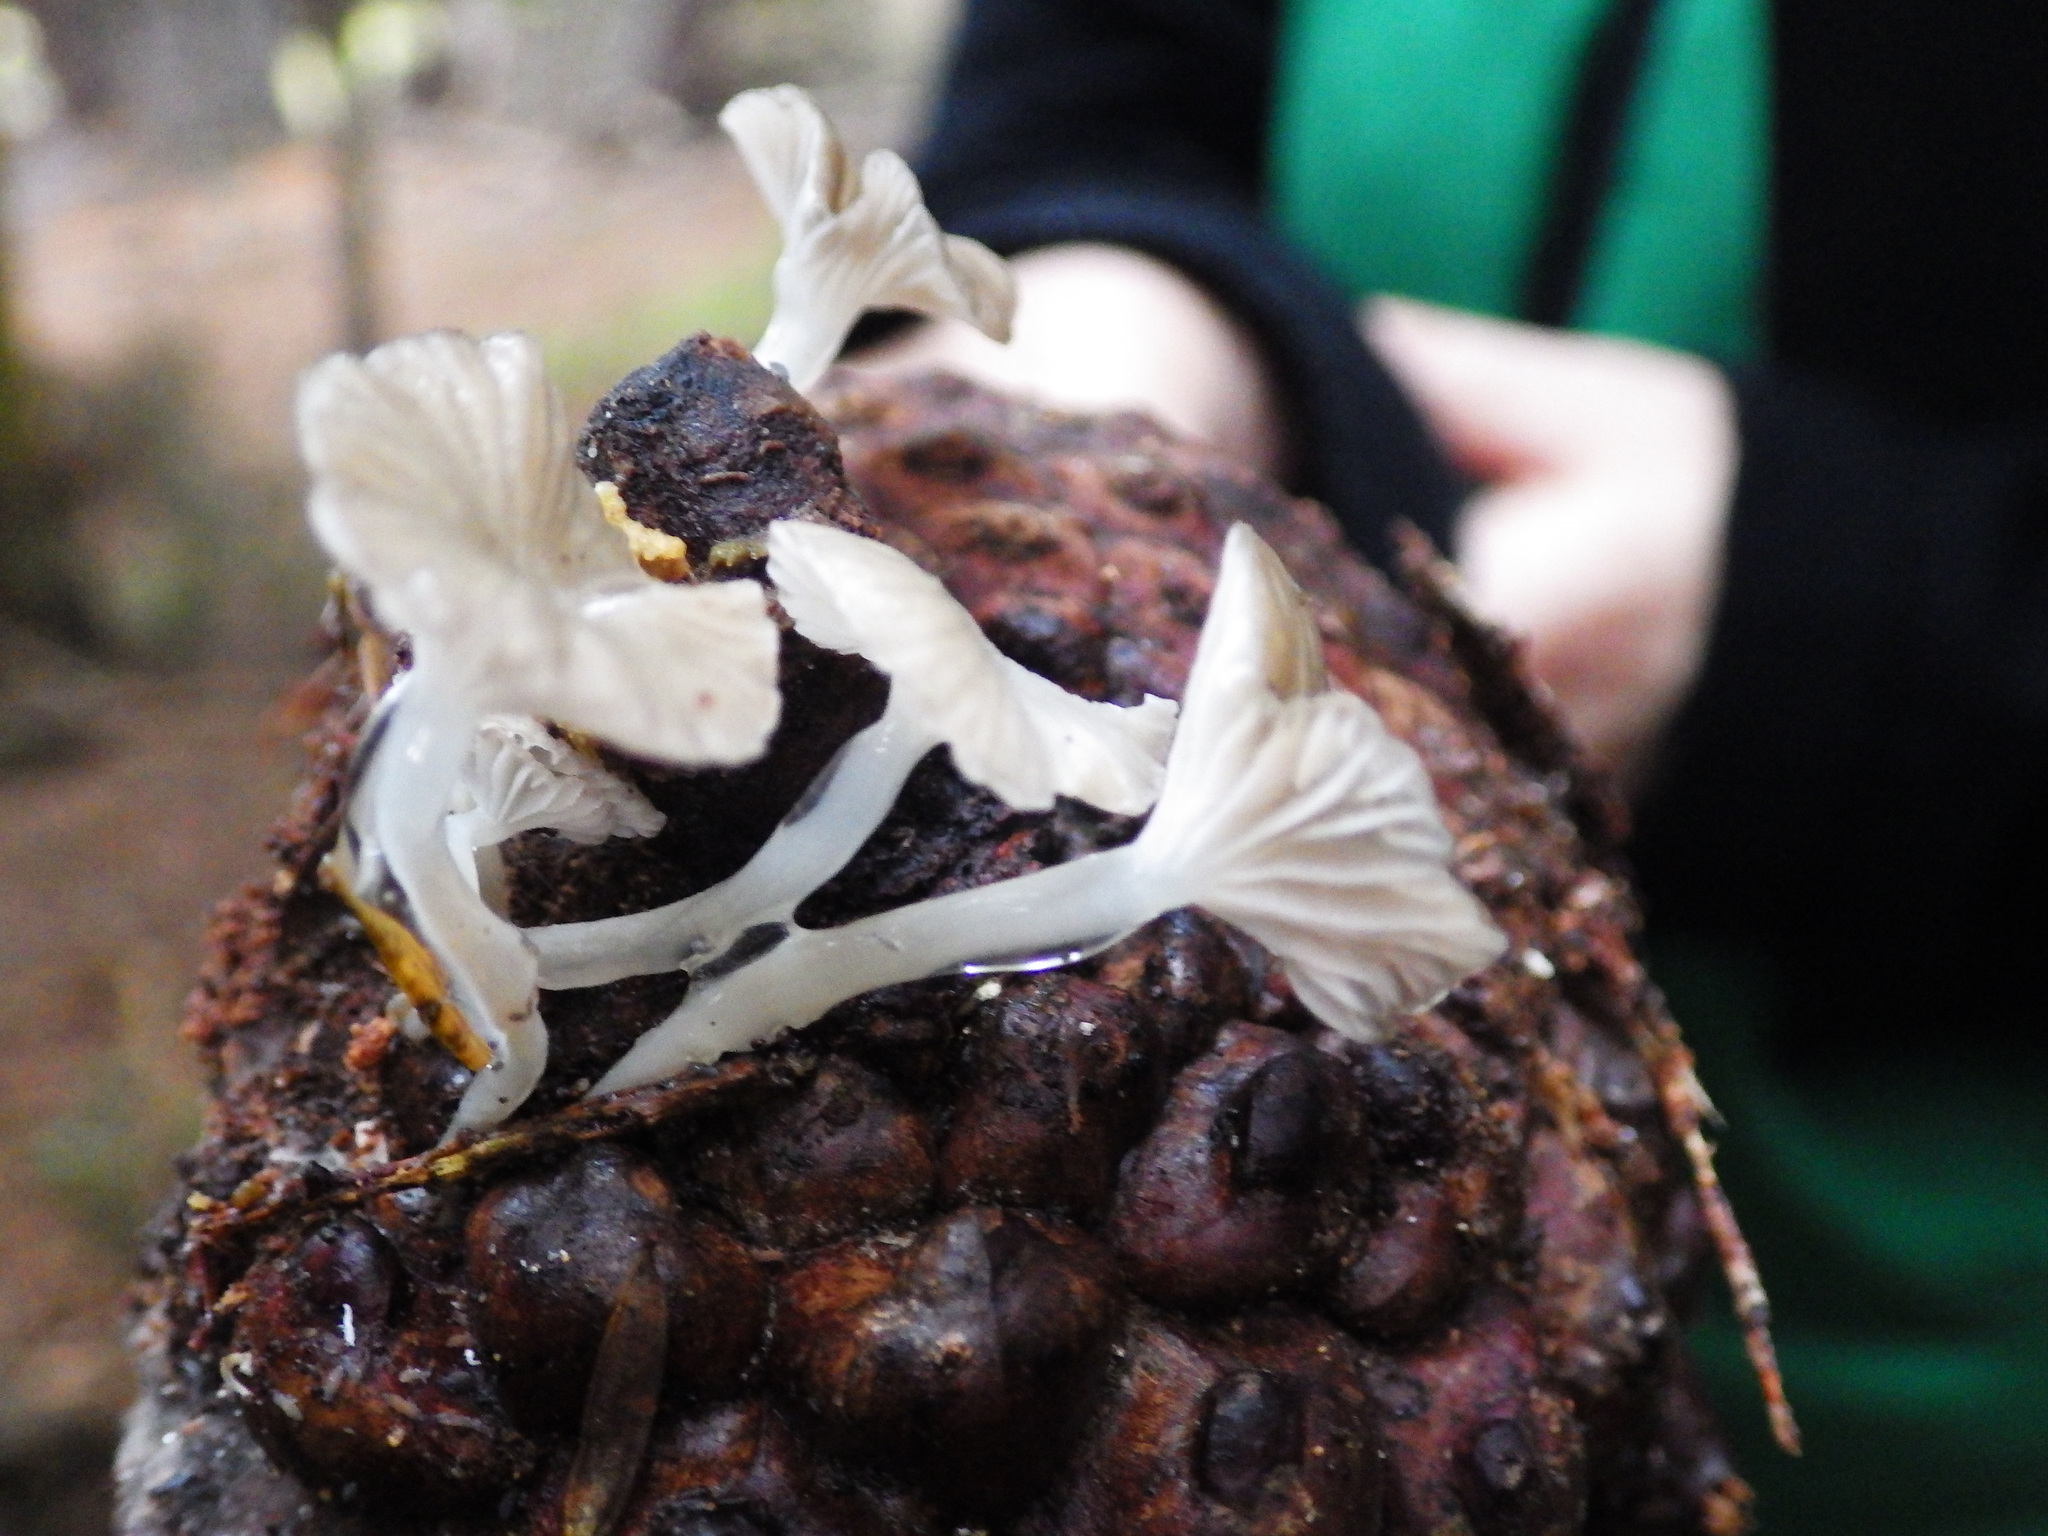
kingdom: Fungi
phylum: Basidiomycota
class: Agaricomycetes
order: Agaricales
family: Mycenaceae
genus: Roridomyces
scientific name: Roridomyces austrororidus
